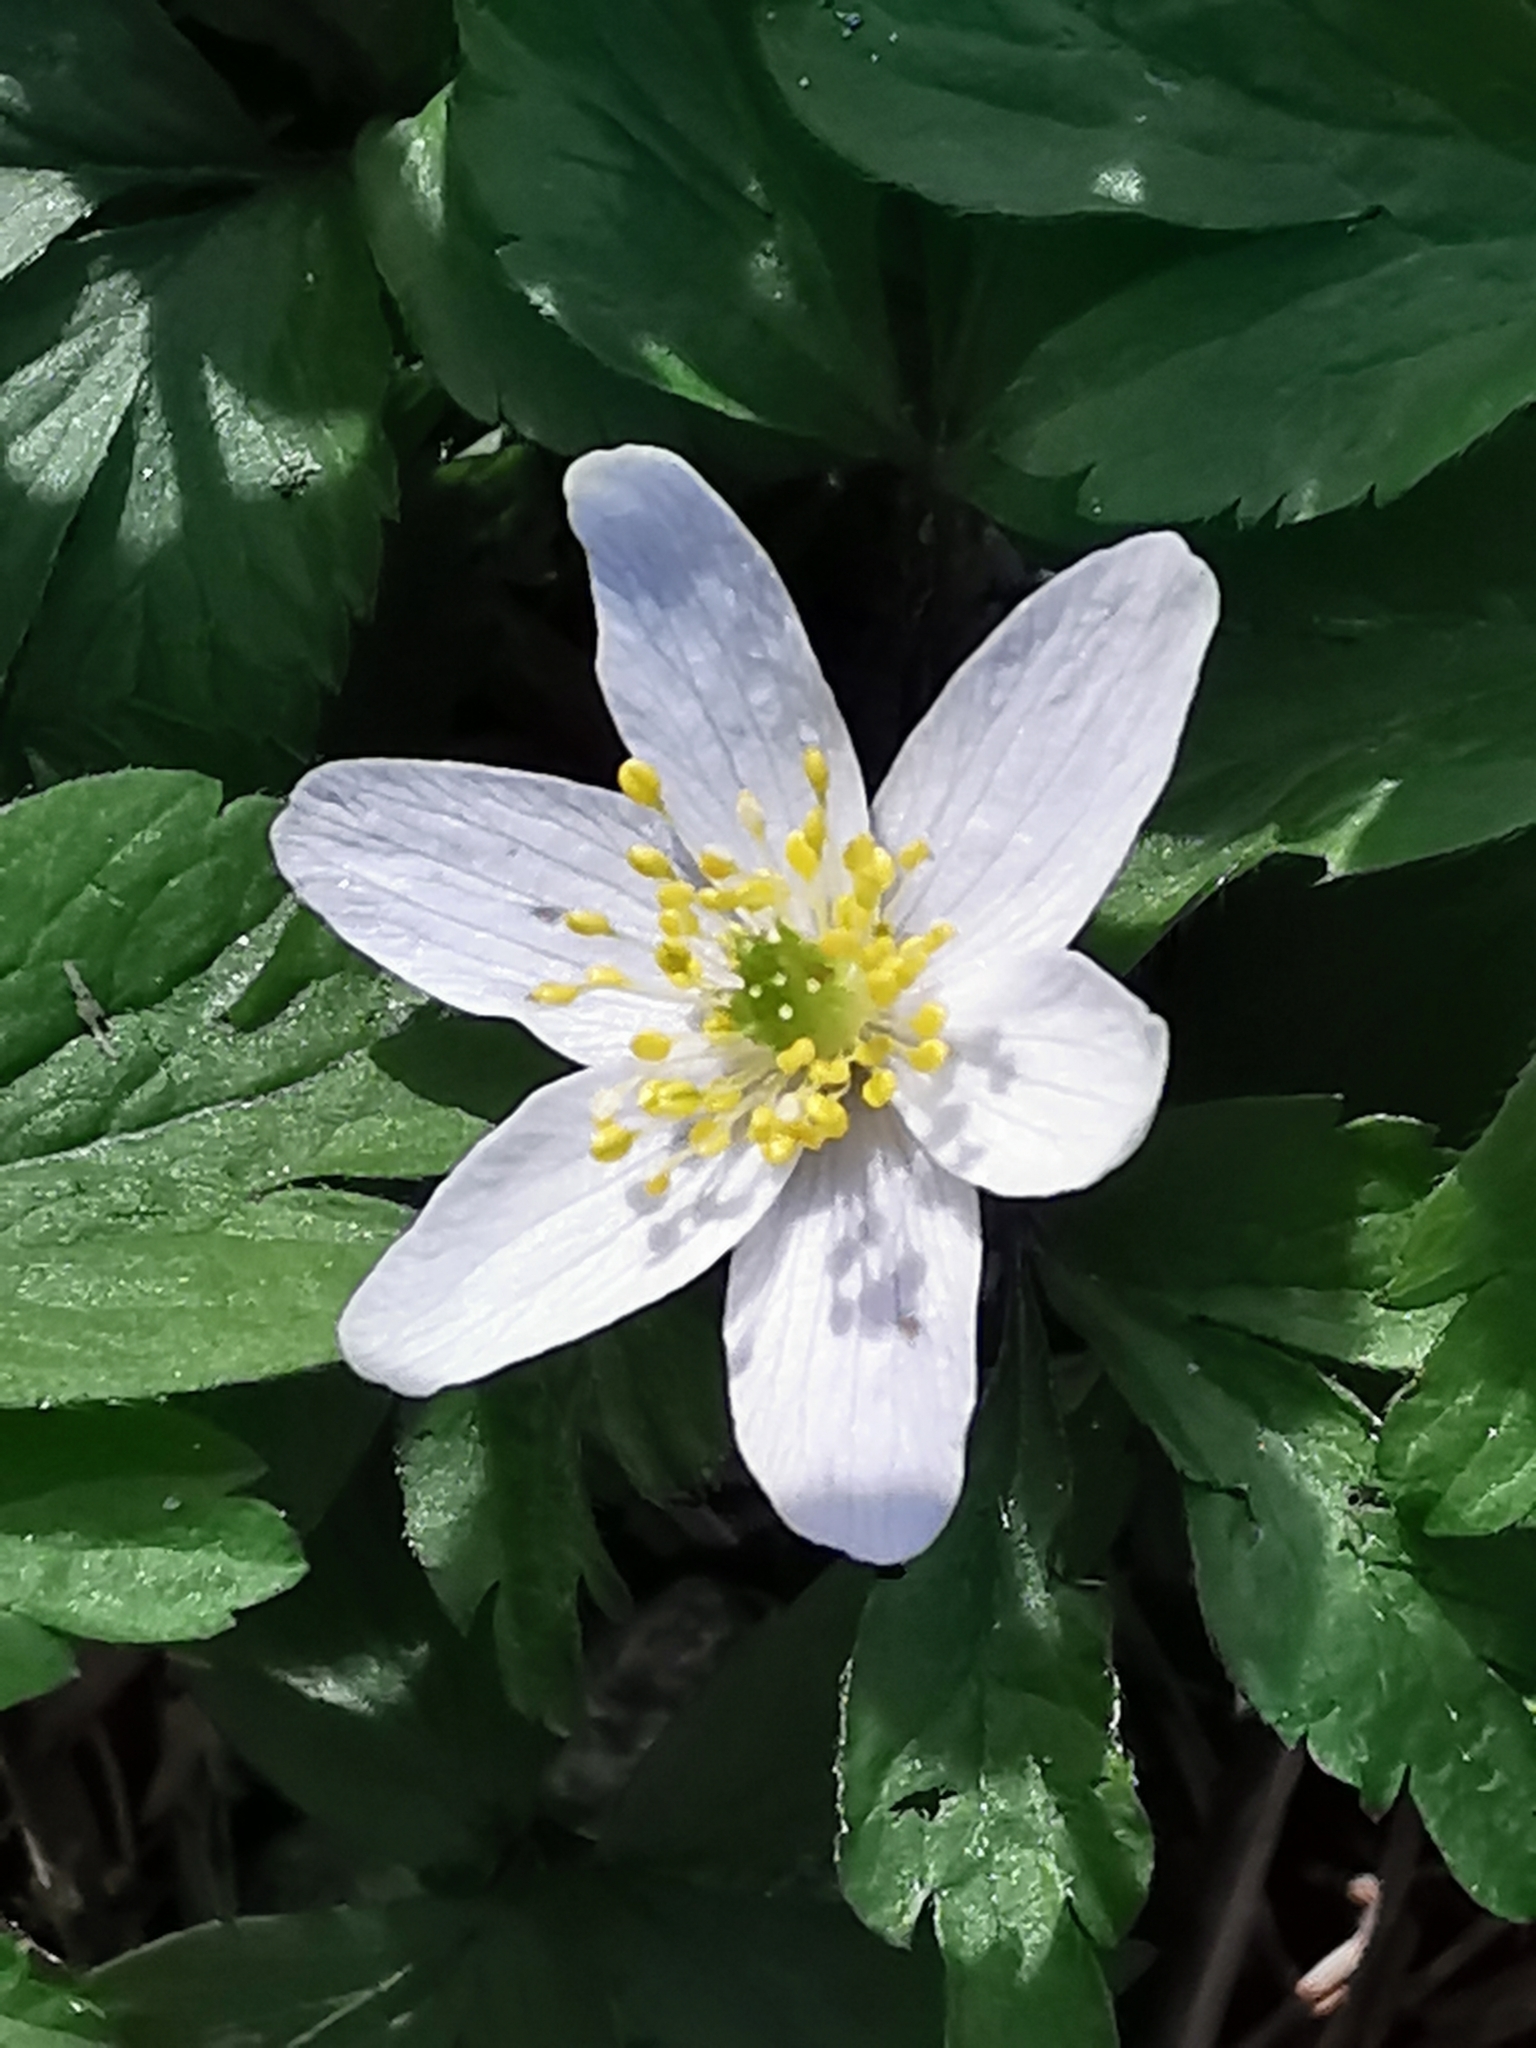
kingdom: Plantae
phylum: Tracheophyta
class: Magnoliopsida
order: Ranunculales
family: Ranunculaceae
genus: Anemone
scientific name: Anemone nemorosa
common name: Wood anemone
